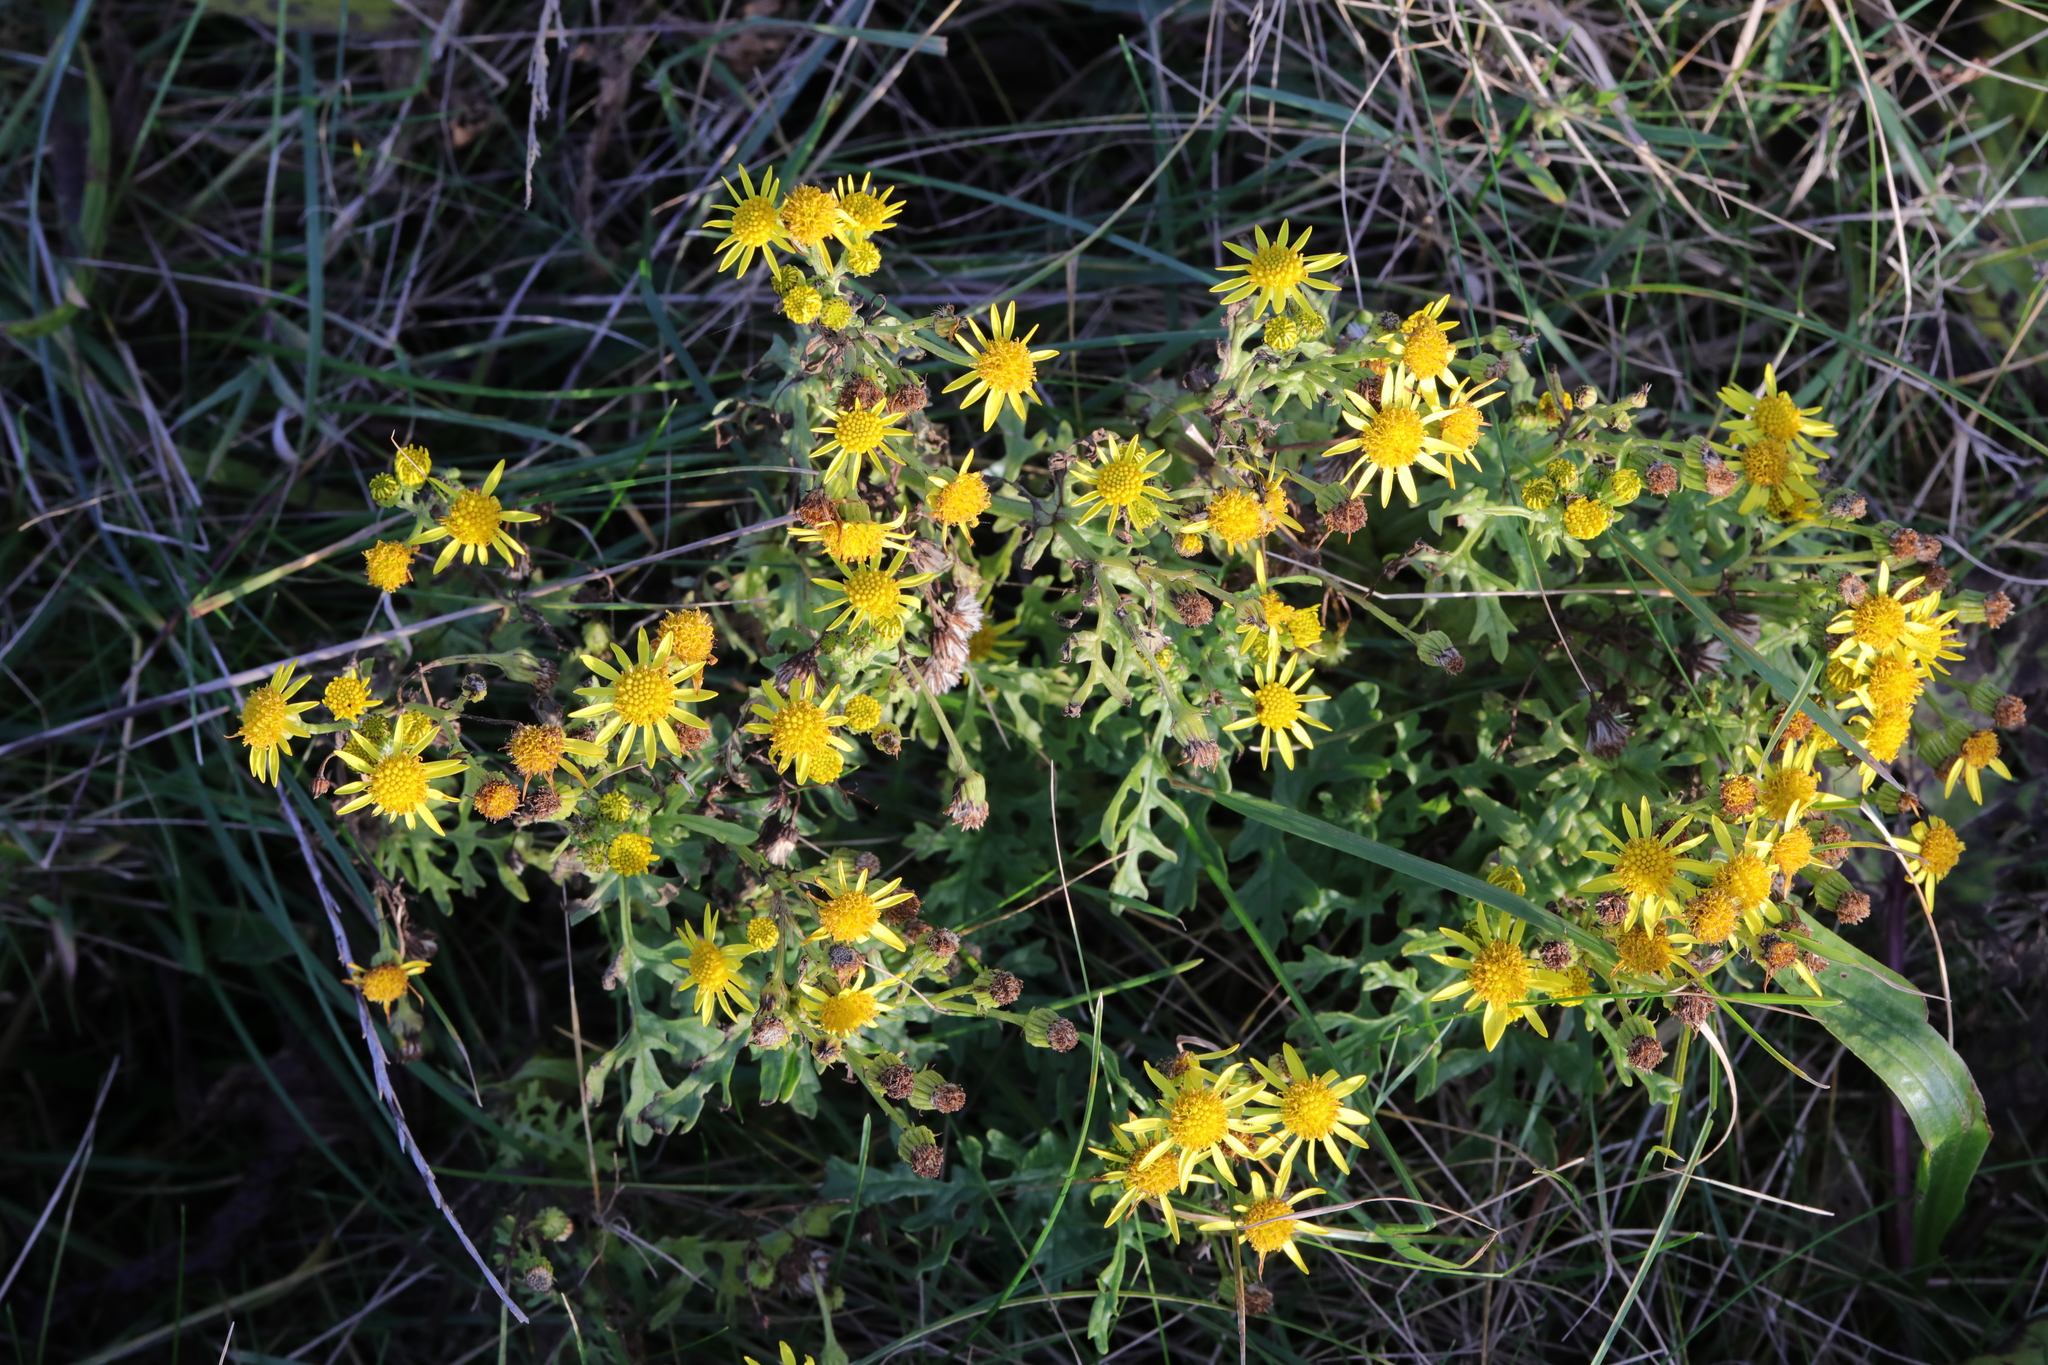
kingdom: Plantae
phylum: Tracheophyta
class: Magnoliopsida
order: Asterales
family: Asteraceae
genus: Jacobaea
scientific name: Jacobaea vulgaris
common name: Stinking willie
